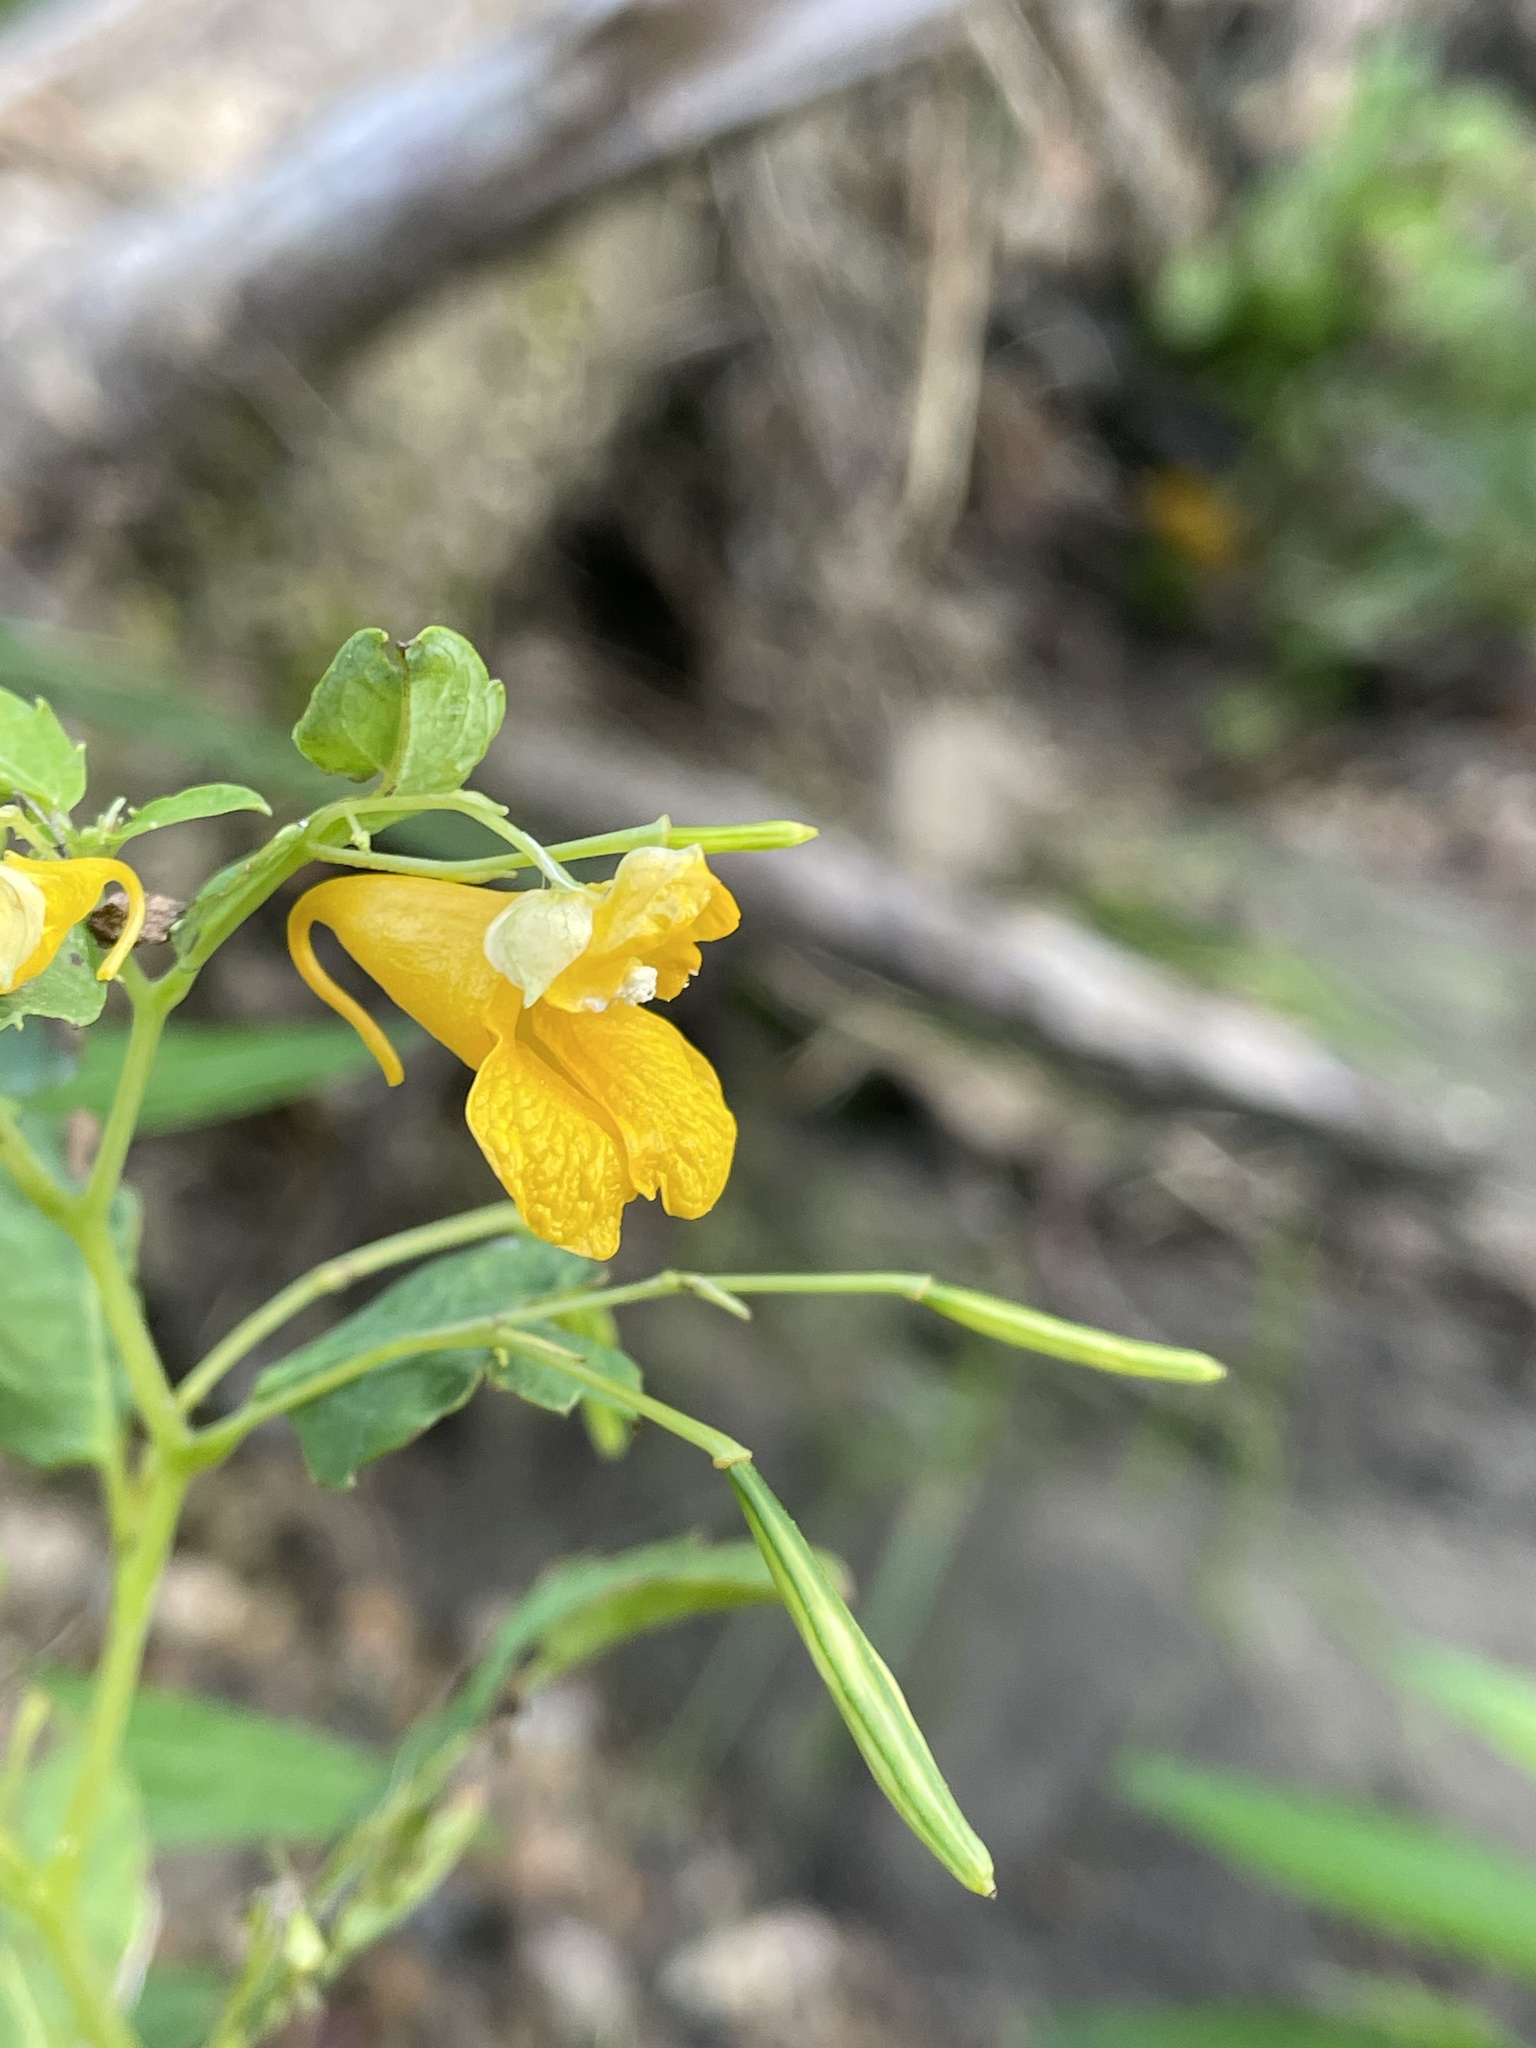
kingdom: Plantae
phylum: Tracheophyta
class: Magnoliopsida
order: Ericales
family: Balsaminaceae
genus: Impatiens
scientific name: Impatiens capensis
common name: Orange balsam
